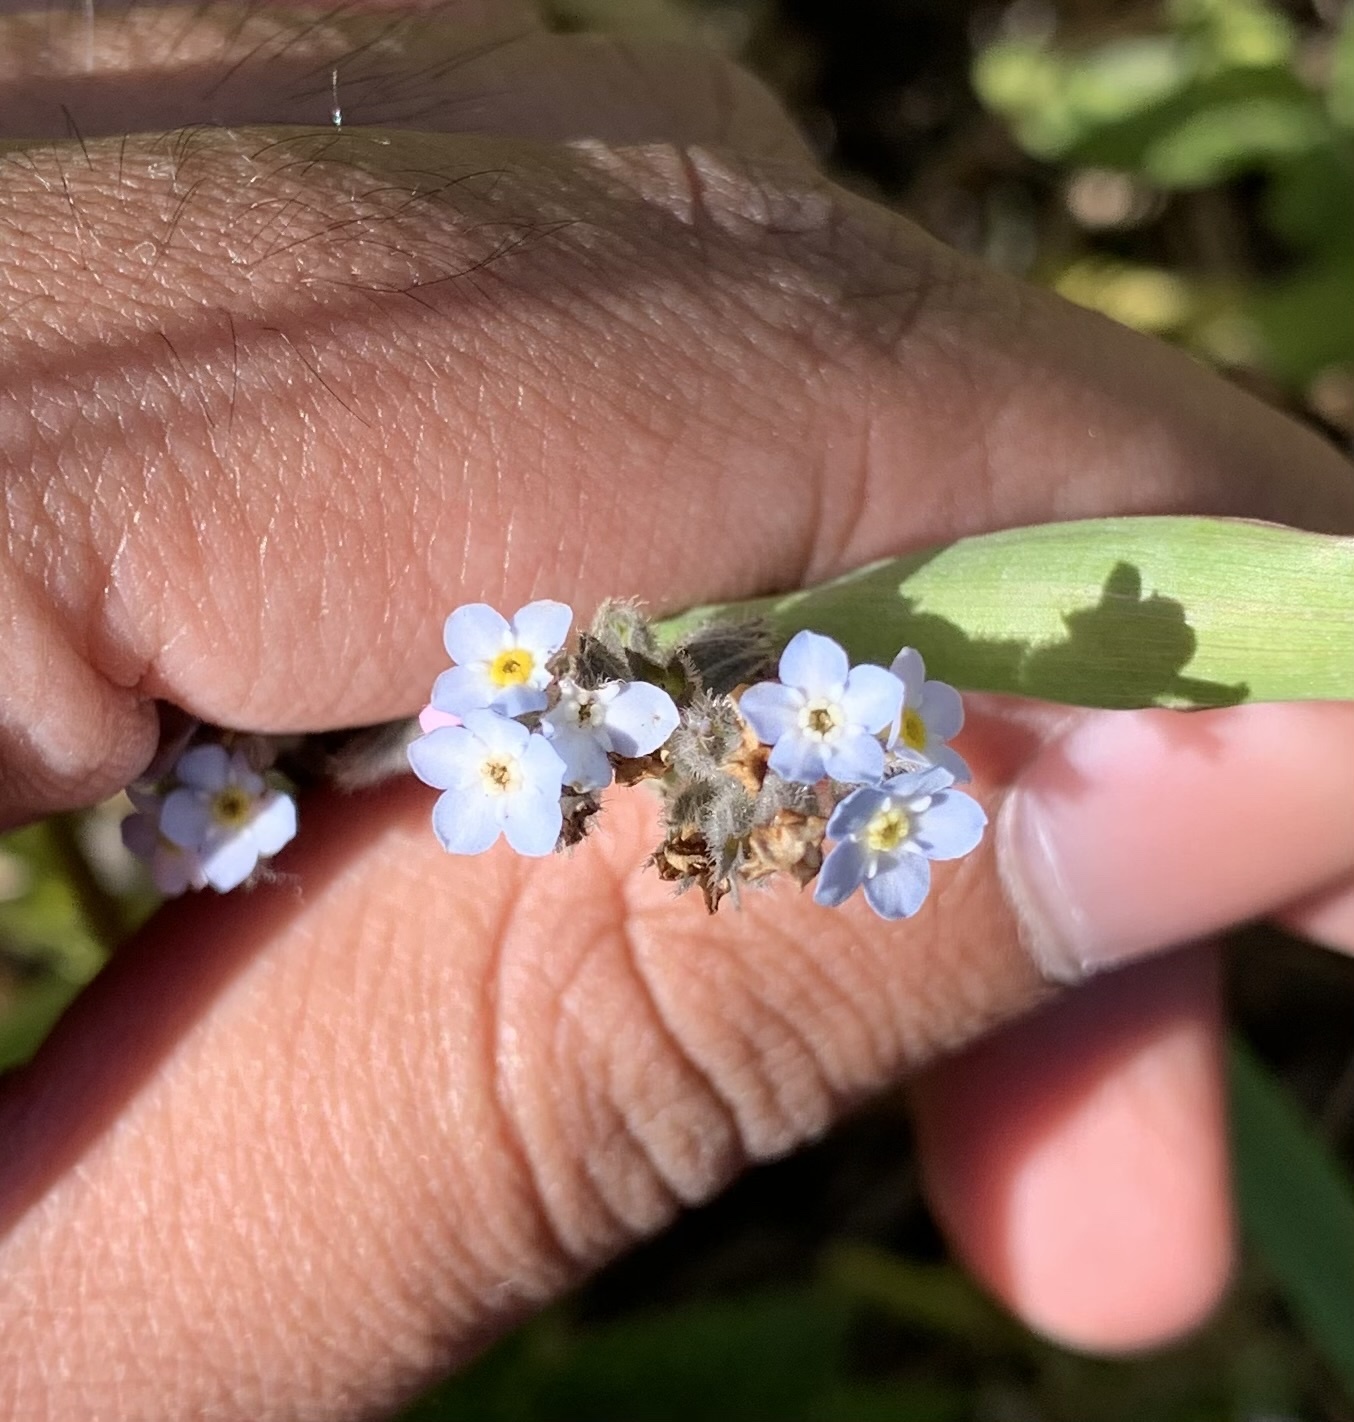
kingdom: Plantae
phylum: Tracheophyta
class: Magnoliopsida
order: Boraginales
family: Boraginaceae
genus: Myosotis
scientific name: Myosotis latifolia
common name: Broadleaf forget-me-not
